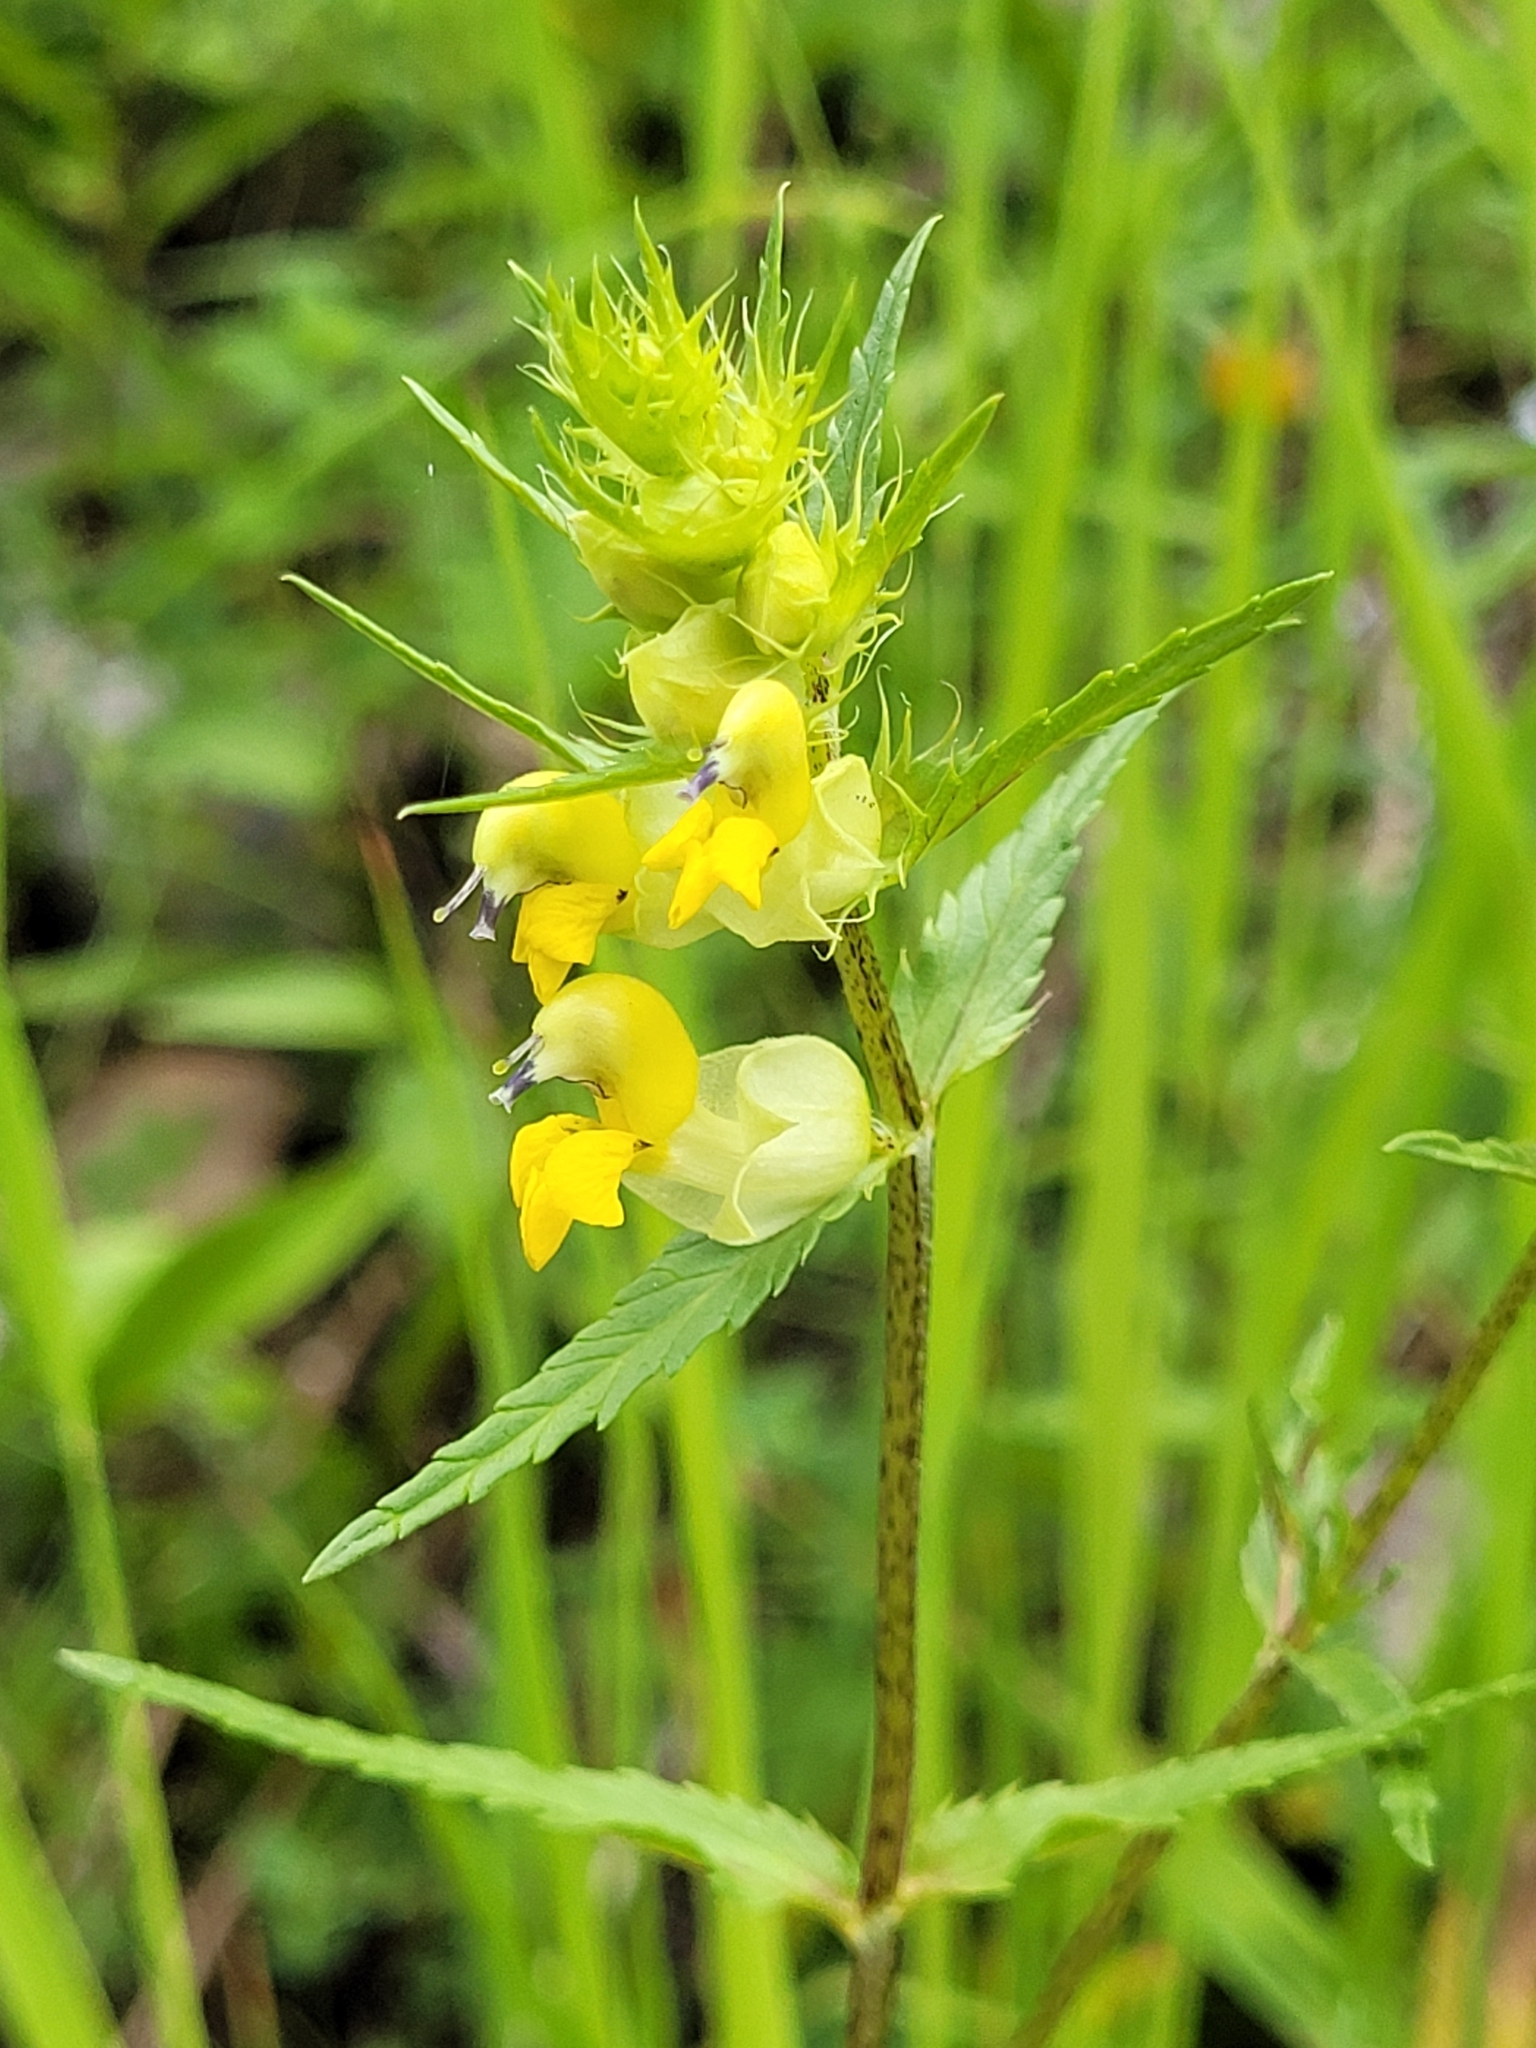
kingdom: Plantae
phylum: Tracheophyta
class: Magnoliopsida
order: Lamiales
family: Orobanchaceae
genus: Rhinanthus
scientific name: Rhinanthus glacialis
